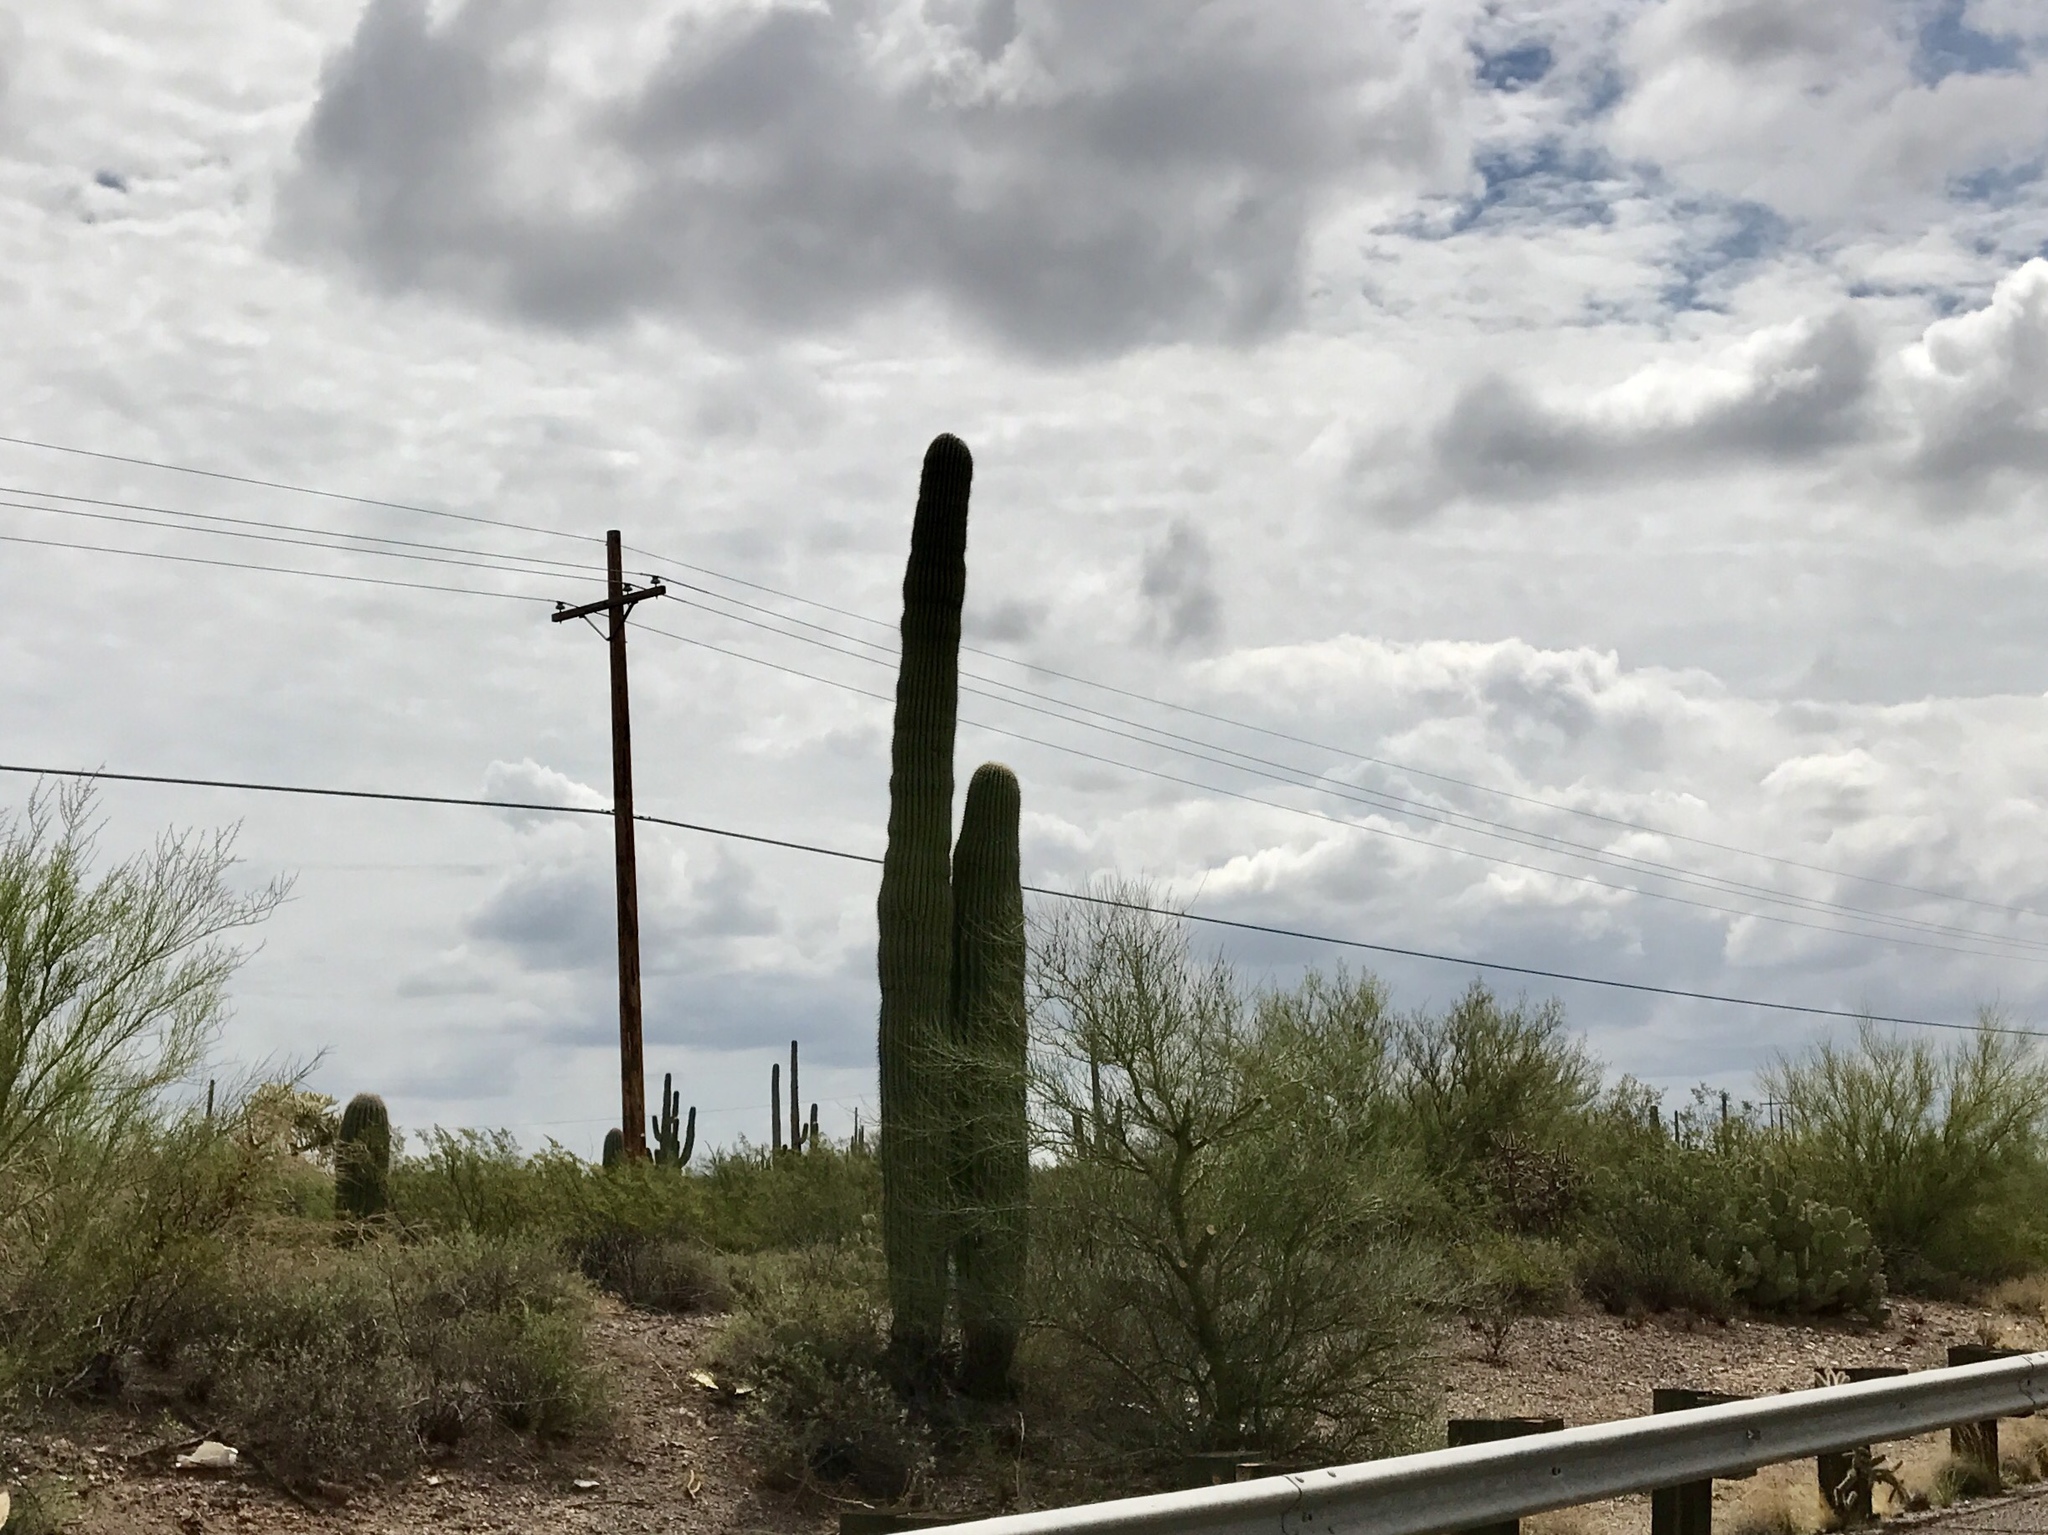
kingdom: Plantae
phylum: Tracheophyta
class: Magnoliopsida
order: Caryophyllales
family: Cactaceae
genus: Carnegiea
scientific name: Carnegiea gigantea
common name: Saguaro
